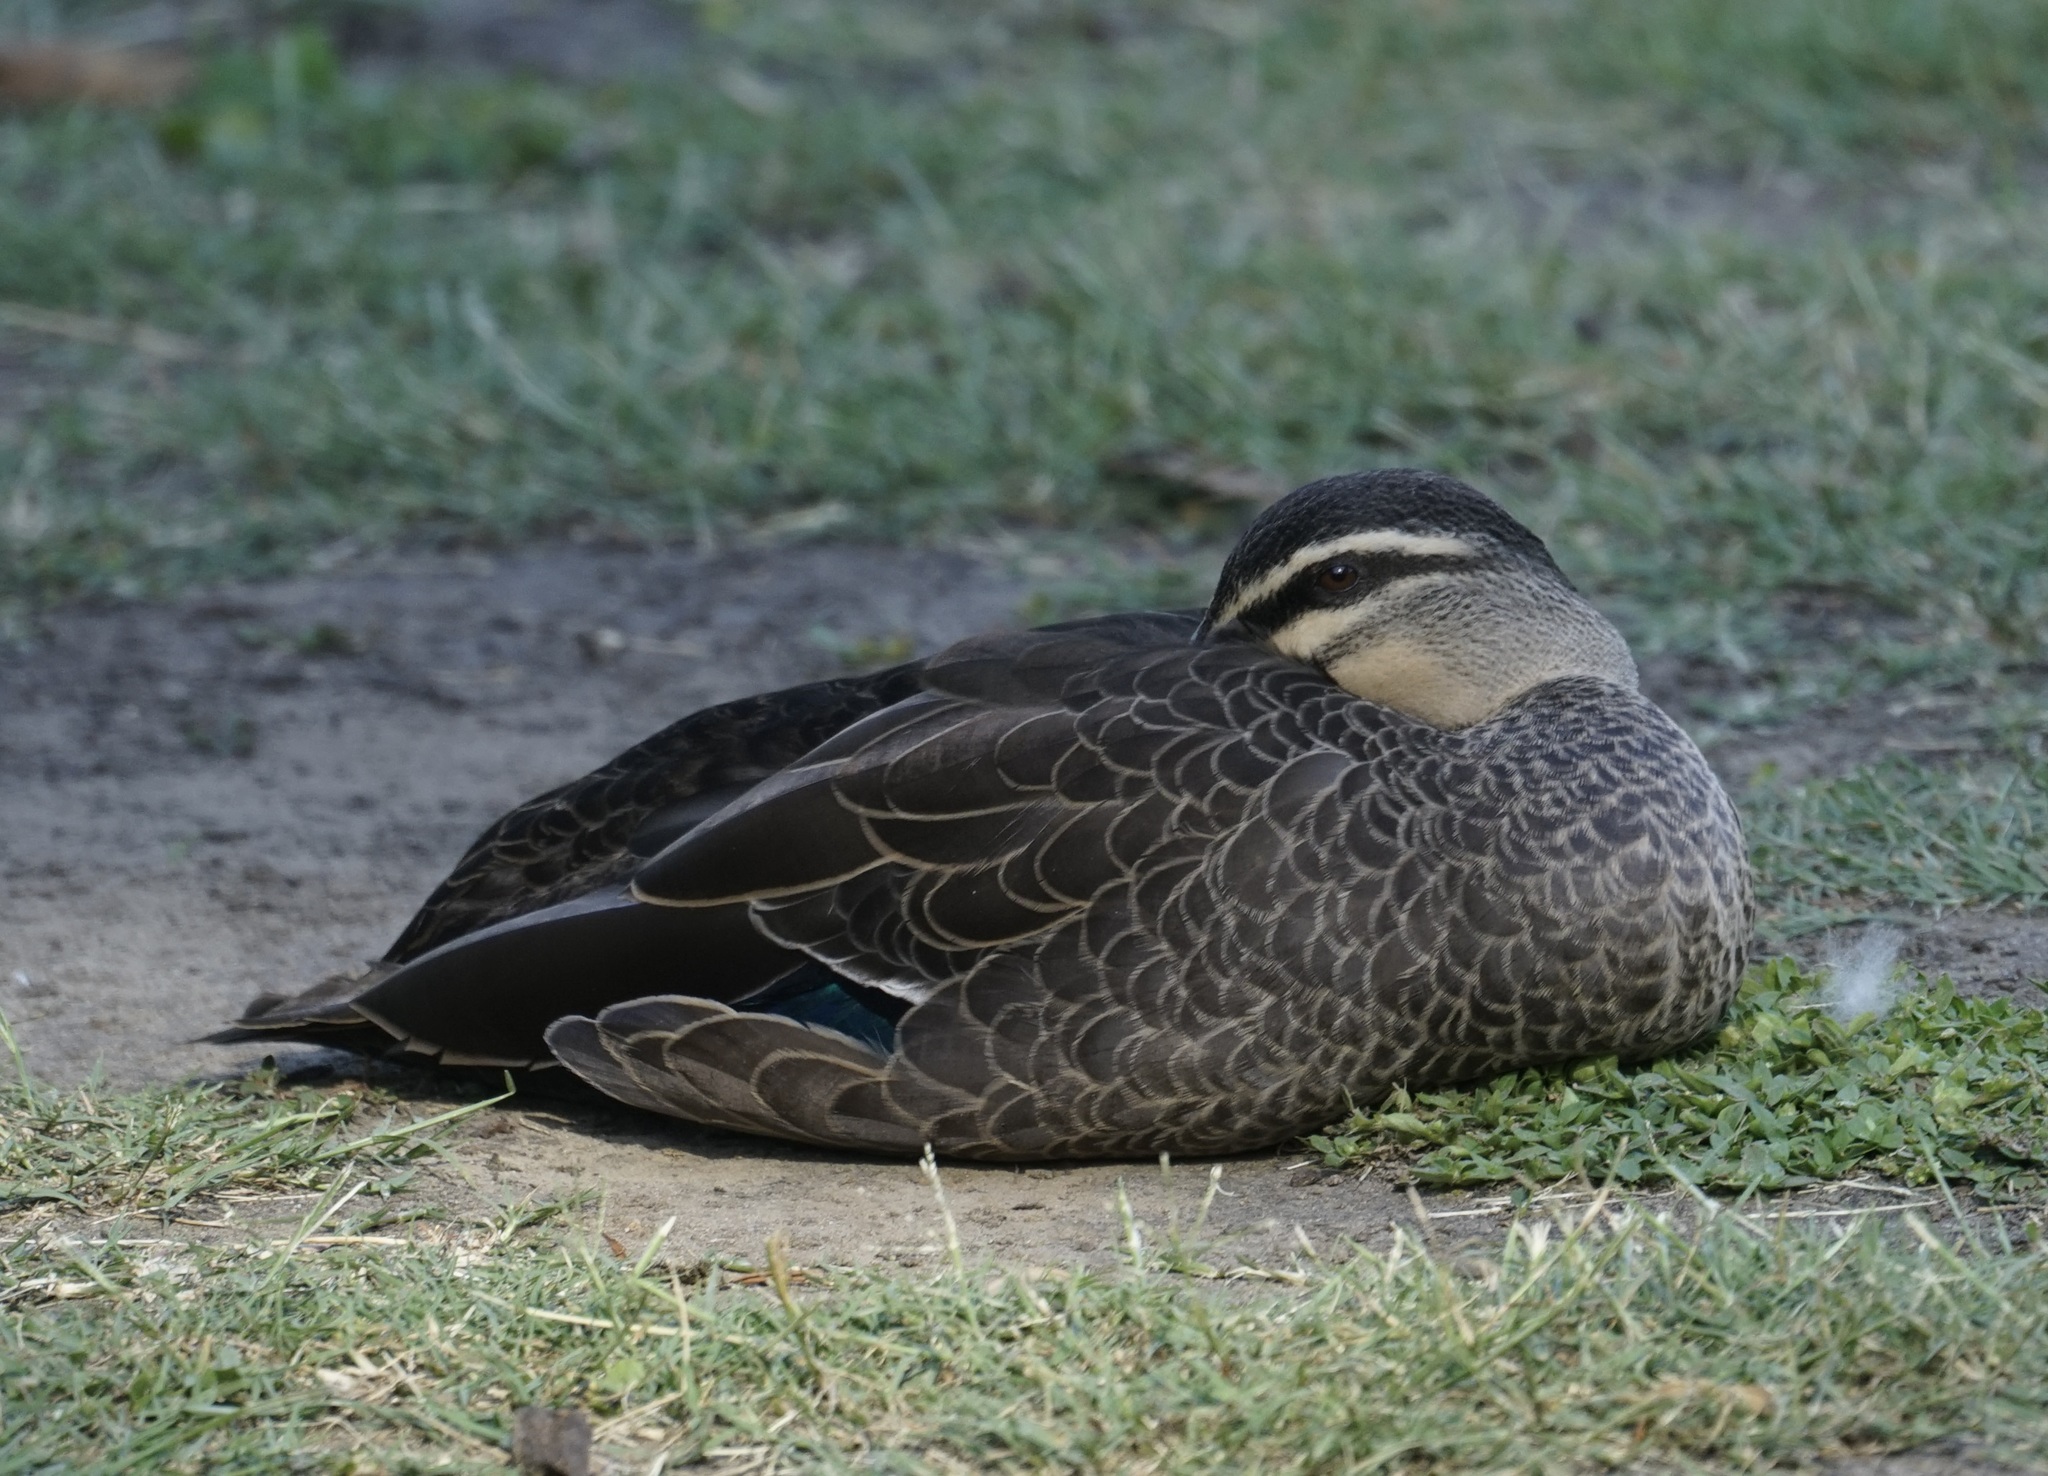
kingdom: Animalia
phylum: Chordata
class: Aves
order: Anseriformes
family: Anatidae
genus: Anas
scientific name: Anas superciliosa
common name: Pacific black duck
